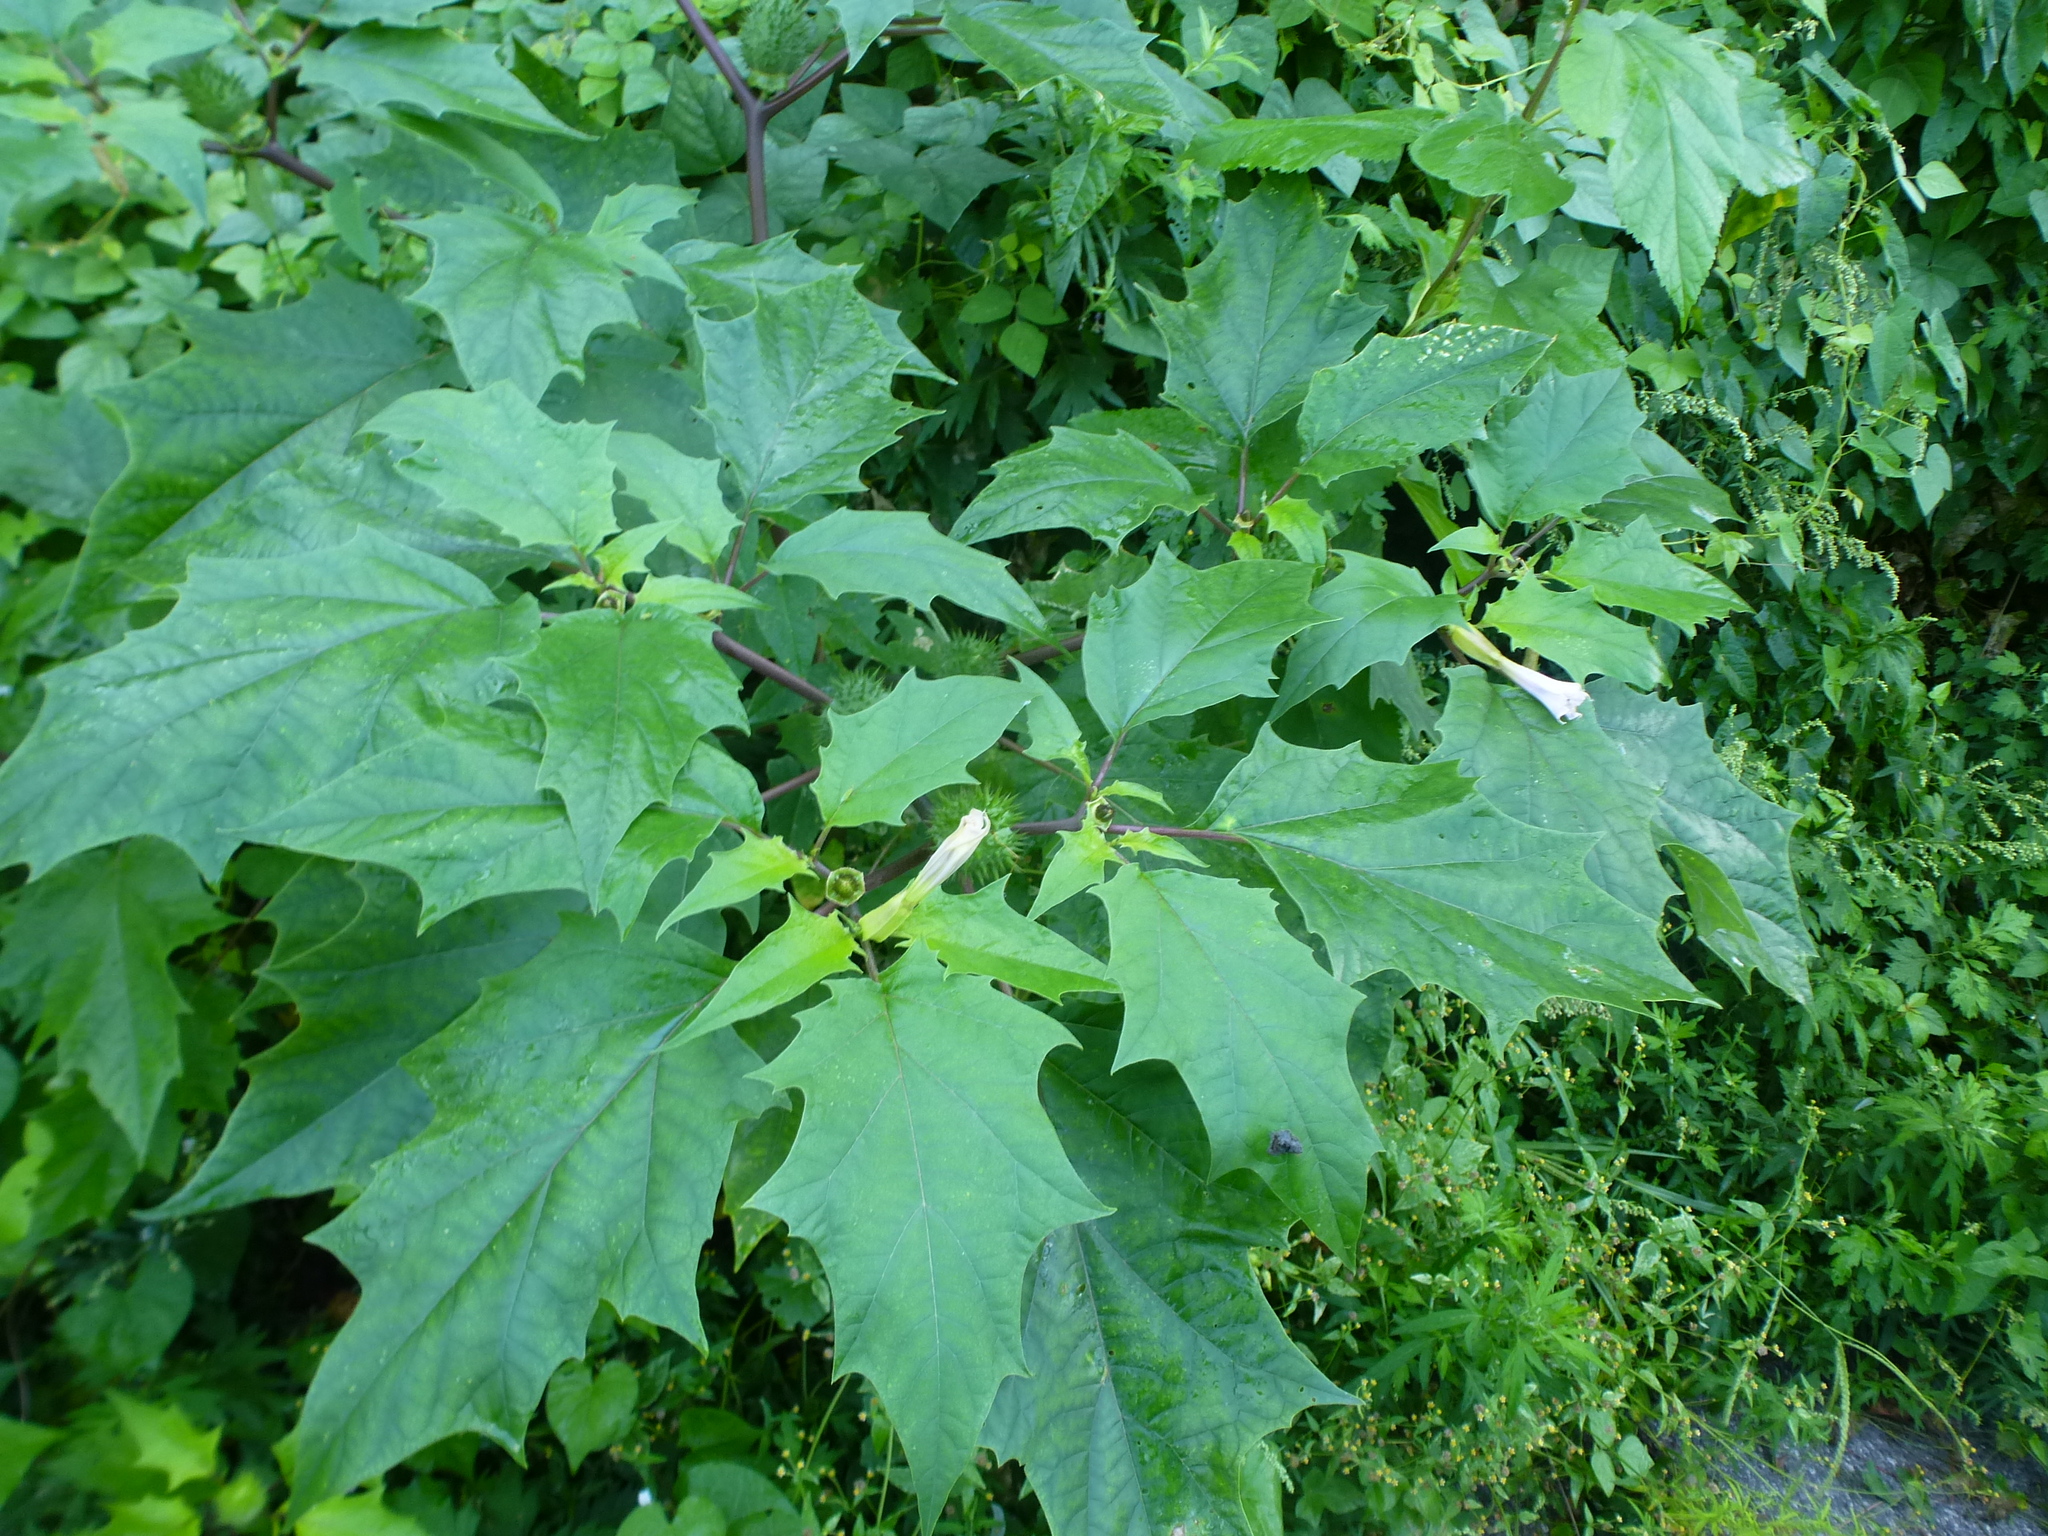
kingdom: Plantae
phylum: Tracheophyta
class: Magnoliopsida
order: Solanales
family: Solanaceae
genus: Datura
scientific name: Datura stramonium
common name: Thorn-apple
